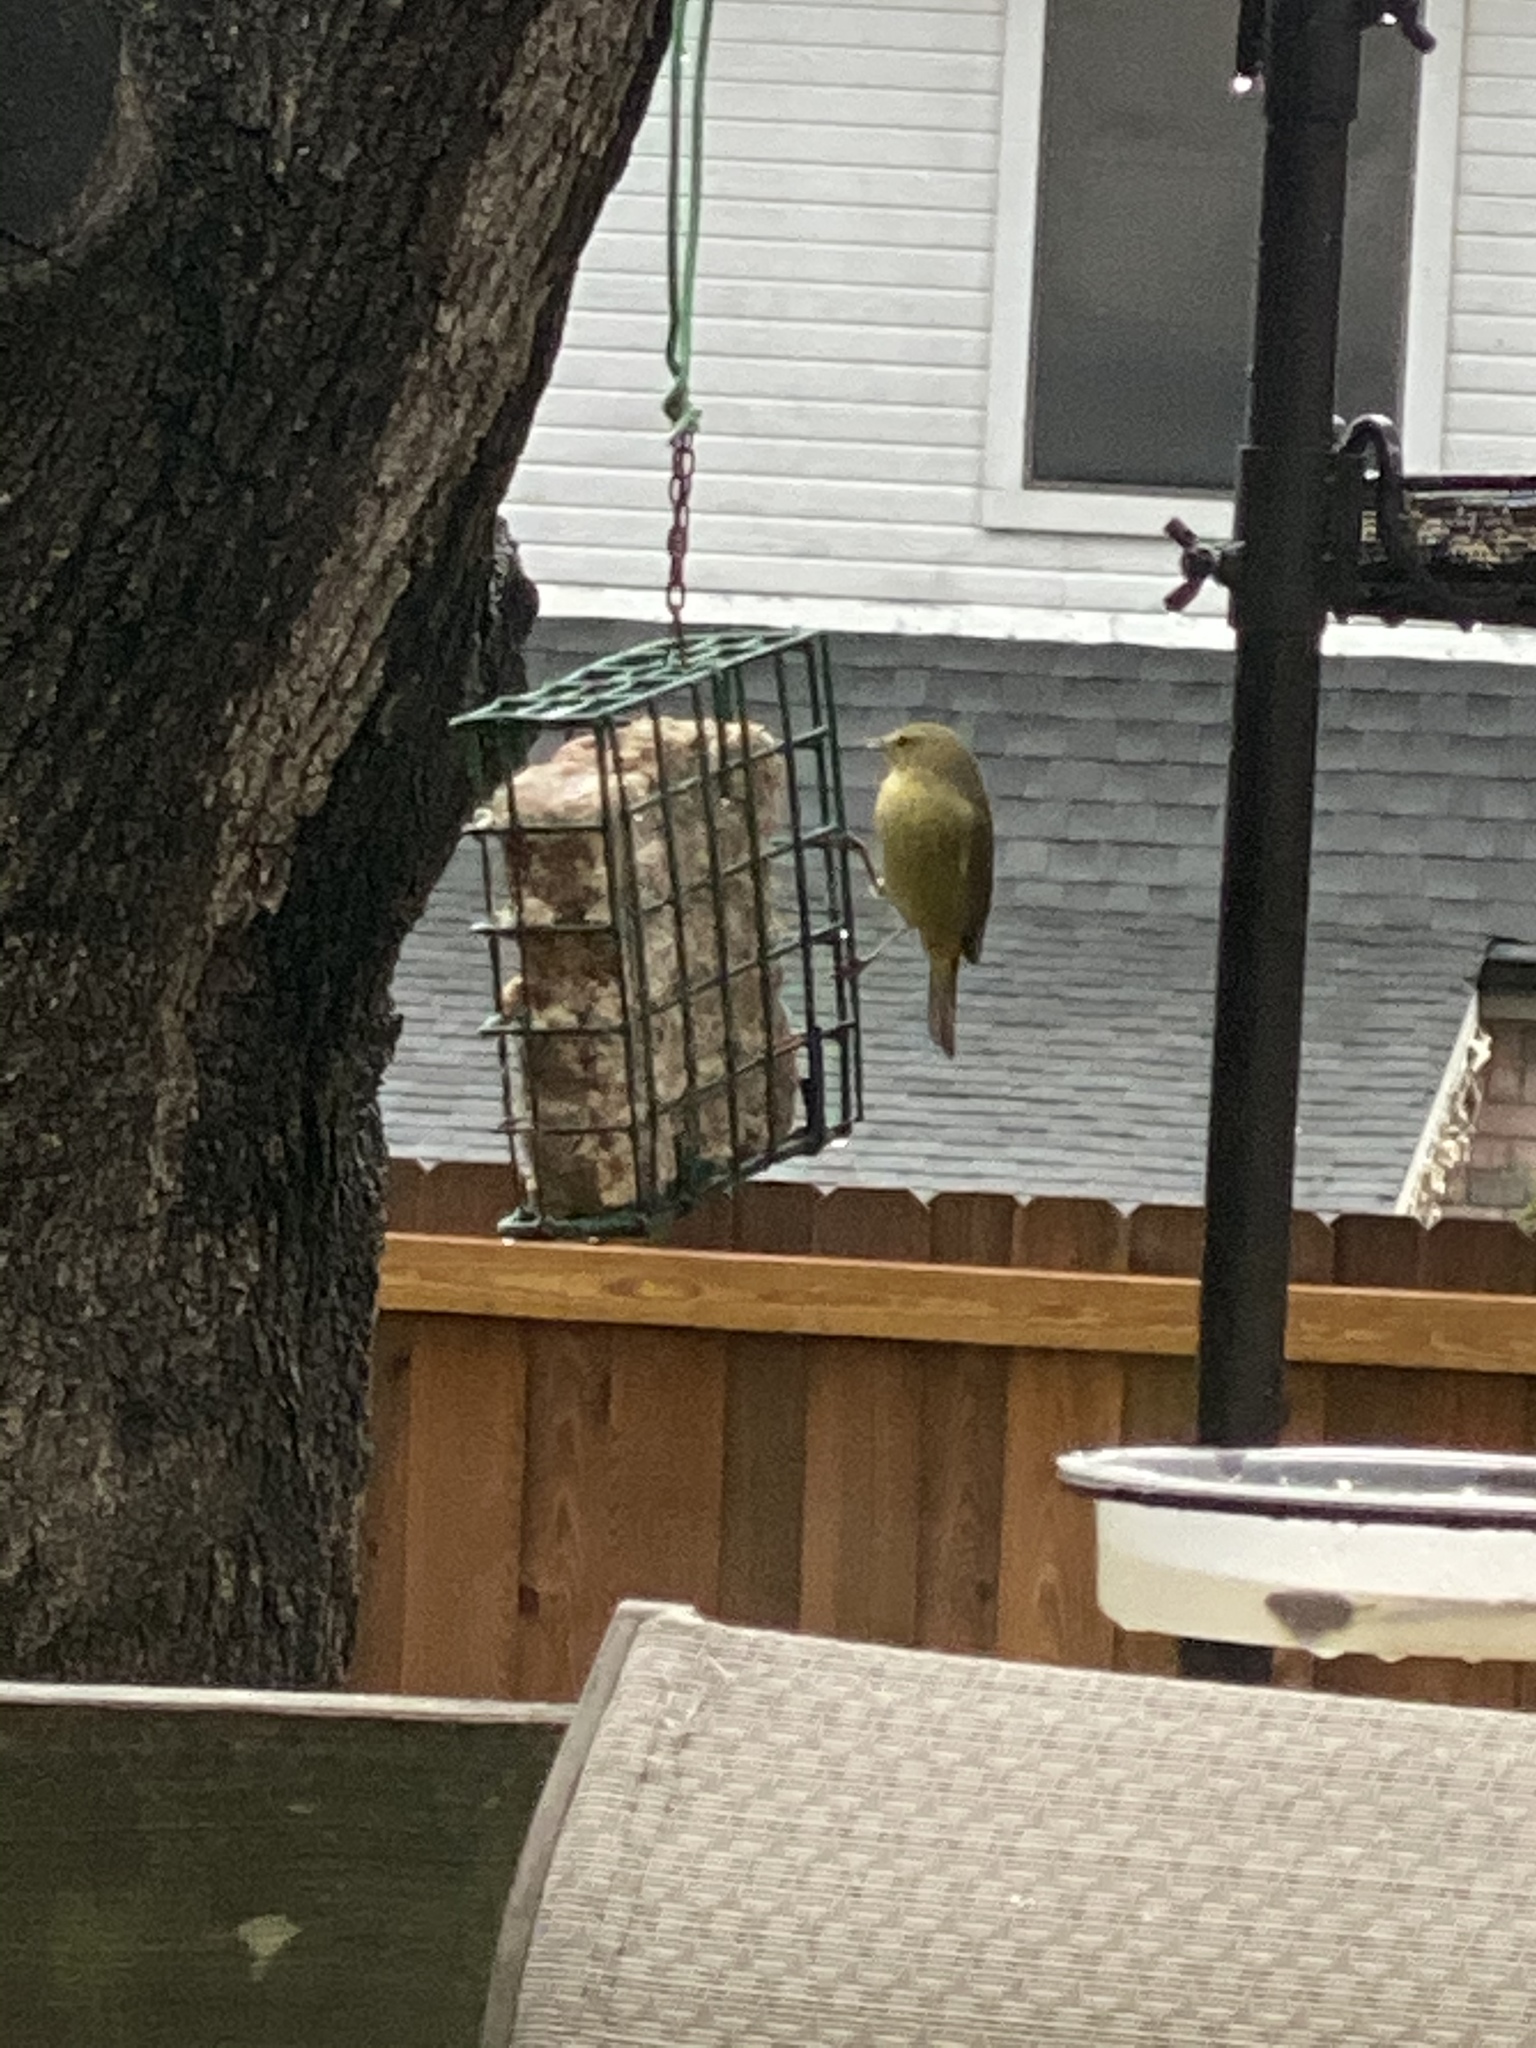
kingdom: Animalia
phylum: Chordata
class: Aves
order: Passeriformes
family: Parulidae
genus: Leiothlypis
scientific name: Leiothlypis celata
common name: Orange-crowned warbler
